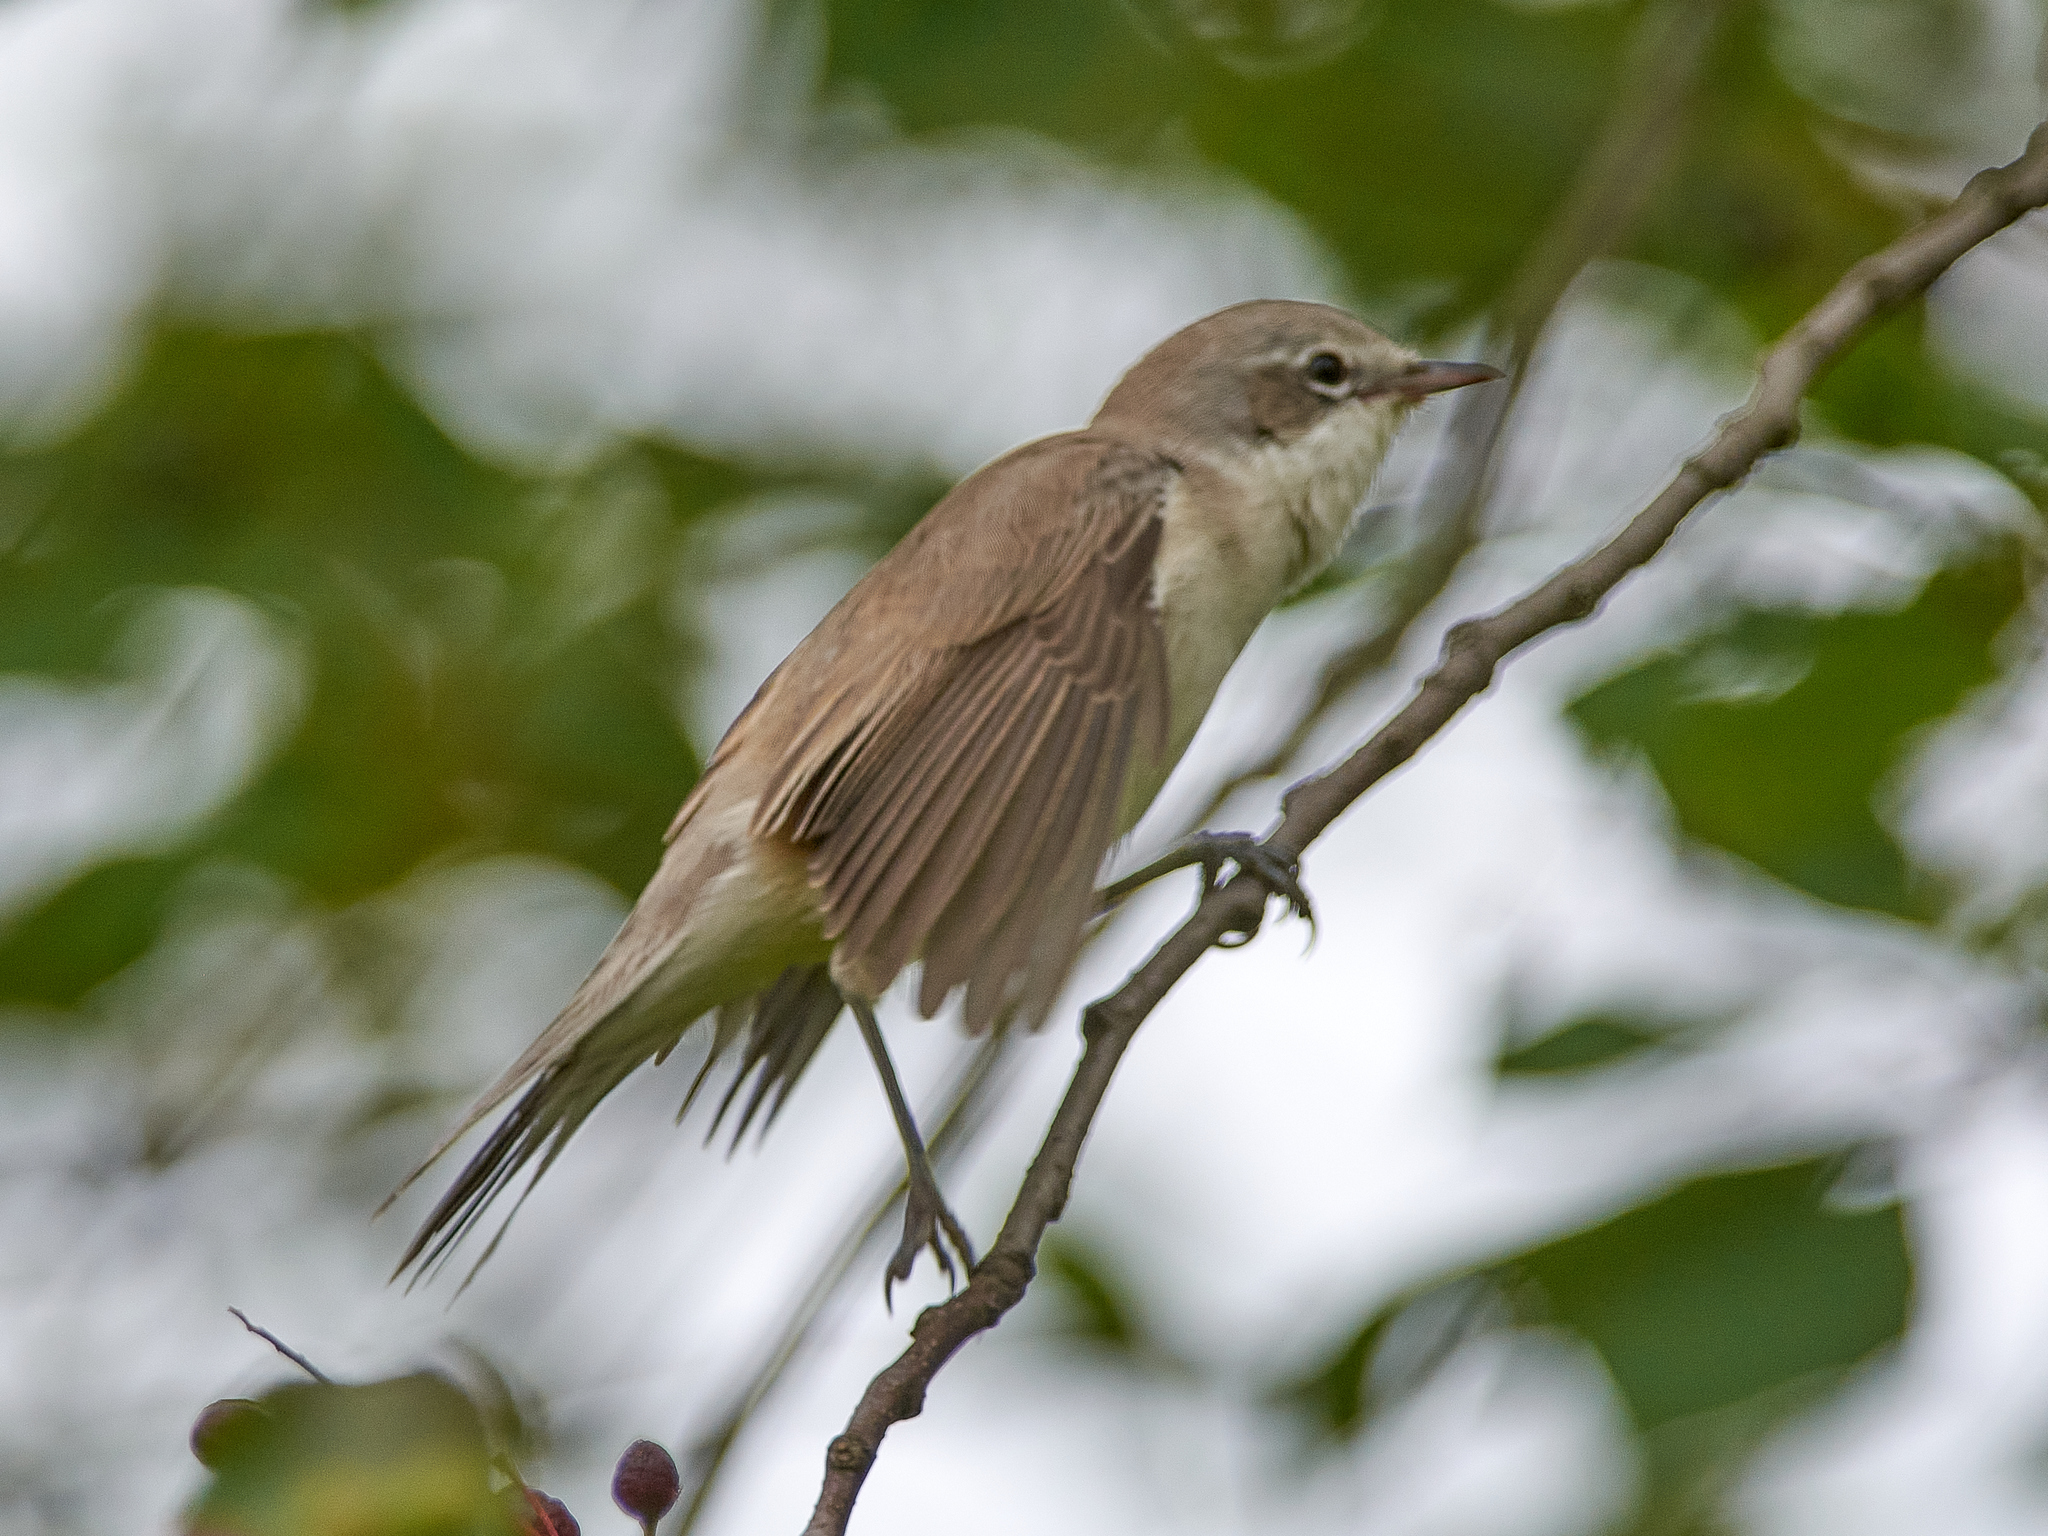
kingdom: Animalia
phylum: Chordata
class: Aves
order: Passeriformes
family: Sylviidae
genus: Sylvia
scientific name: Sylvia curruca
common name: Lesser whitethroat
